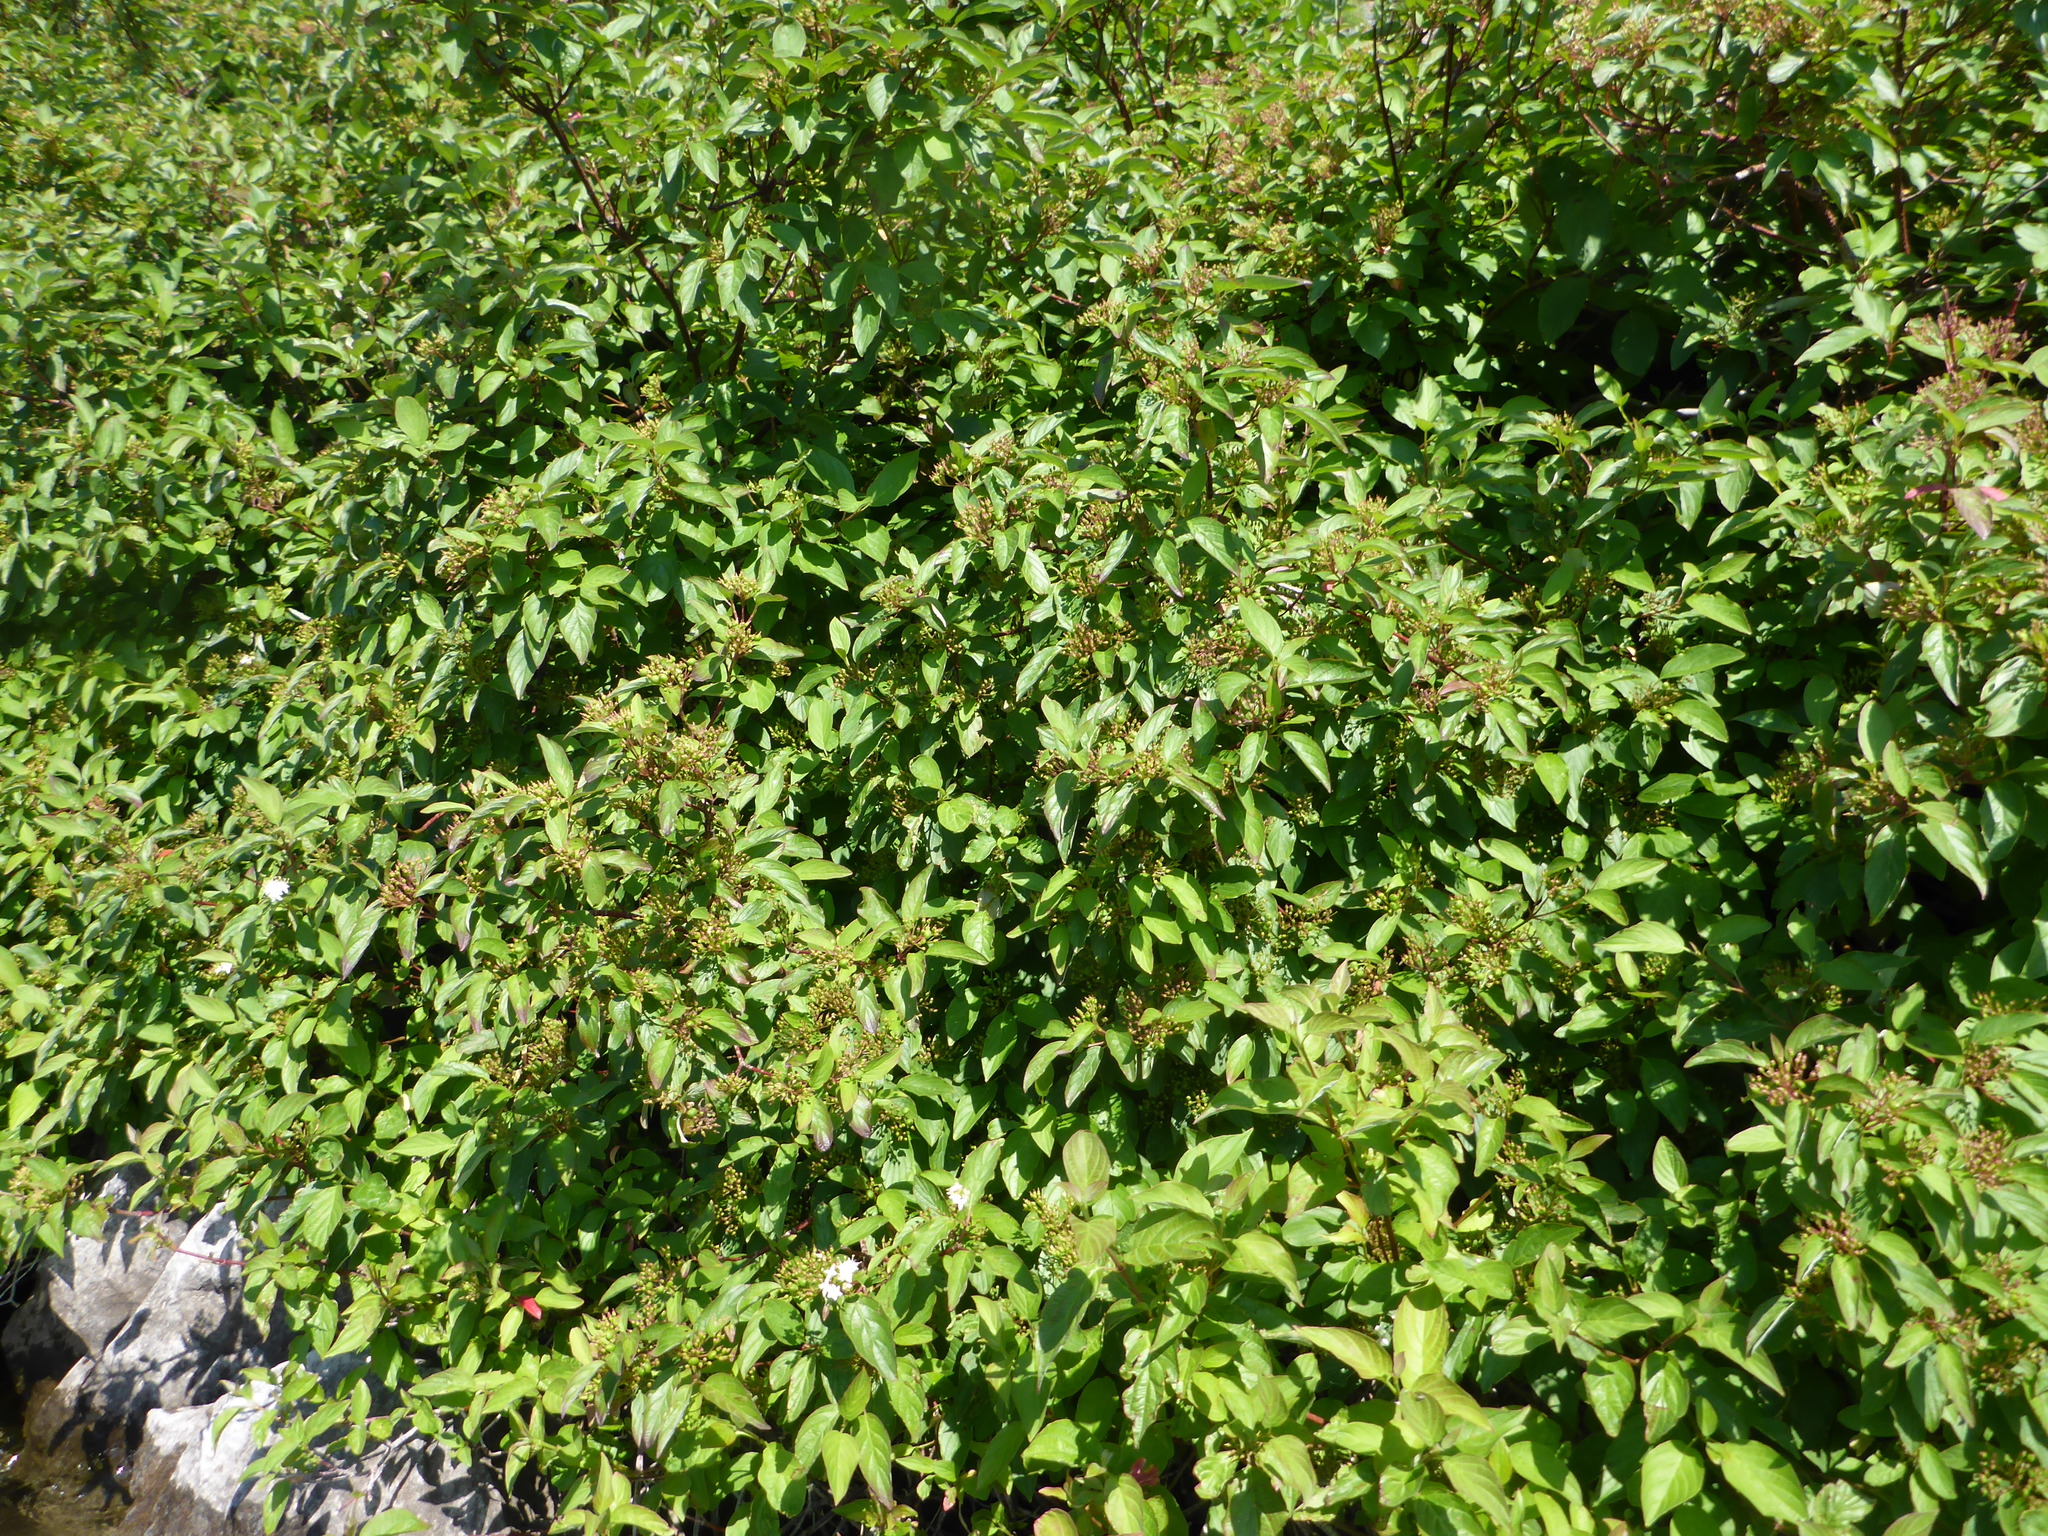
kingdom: Plantae
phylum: Tracheophyta
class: Magnoliopsida
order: Cornales
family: Cornaceae
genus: Cornus
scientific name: Cornus sericea
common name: Red-osier dogwood
